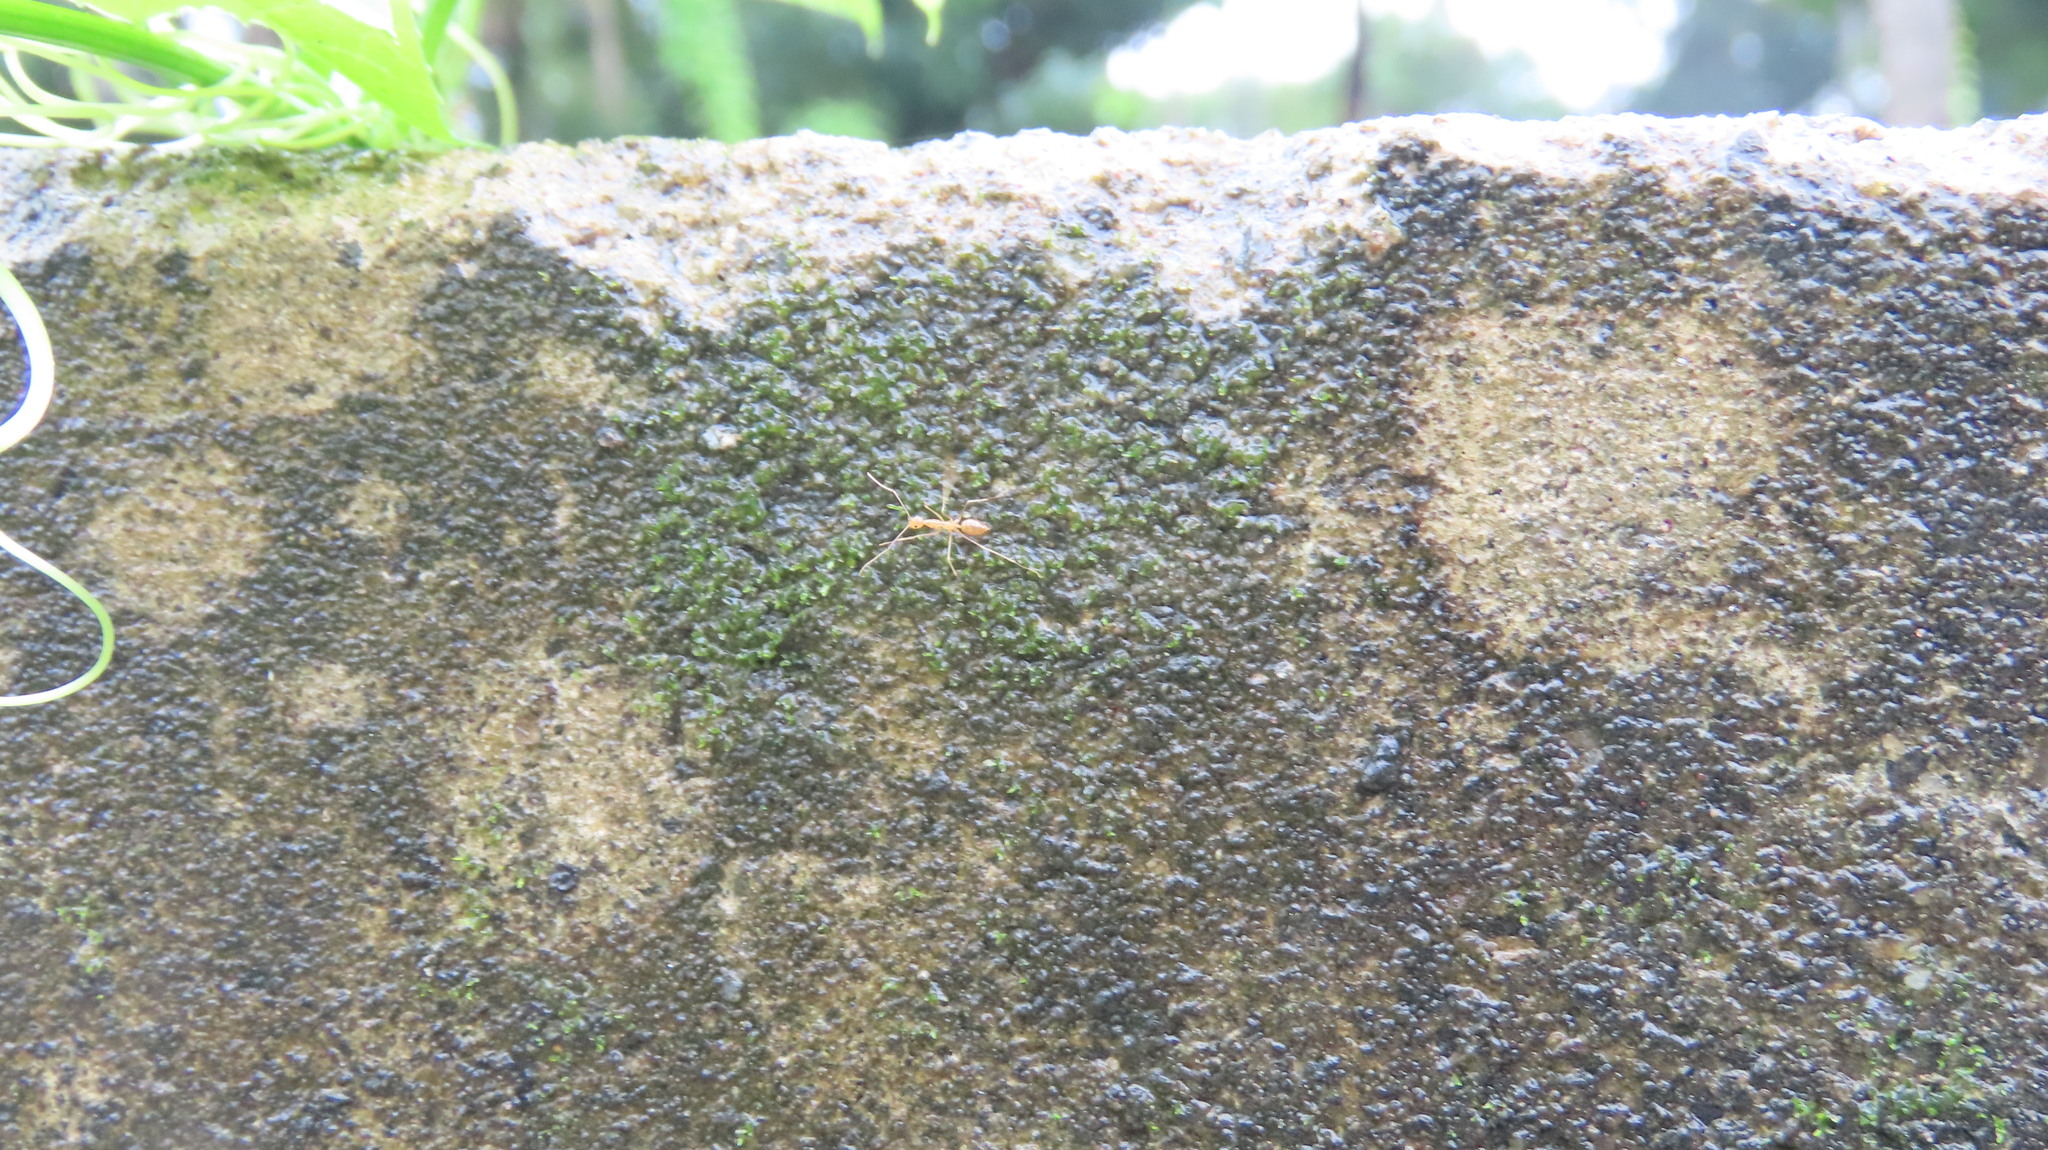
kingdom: Animalia
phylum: Arthropoda
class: Insecta
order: Hymenoptera
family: Formicidae
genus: Anoplolepis
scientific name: Anoplolepis gracilipes
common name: Ant
